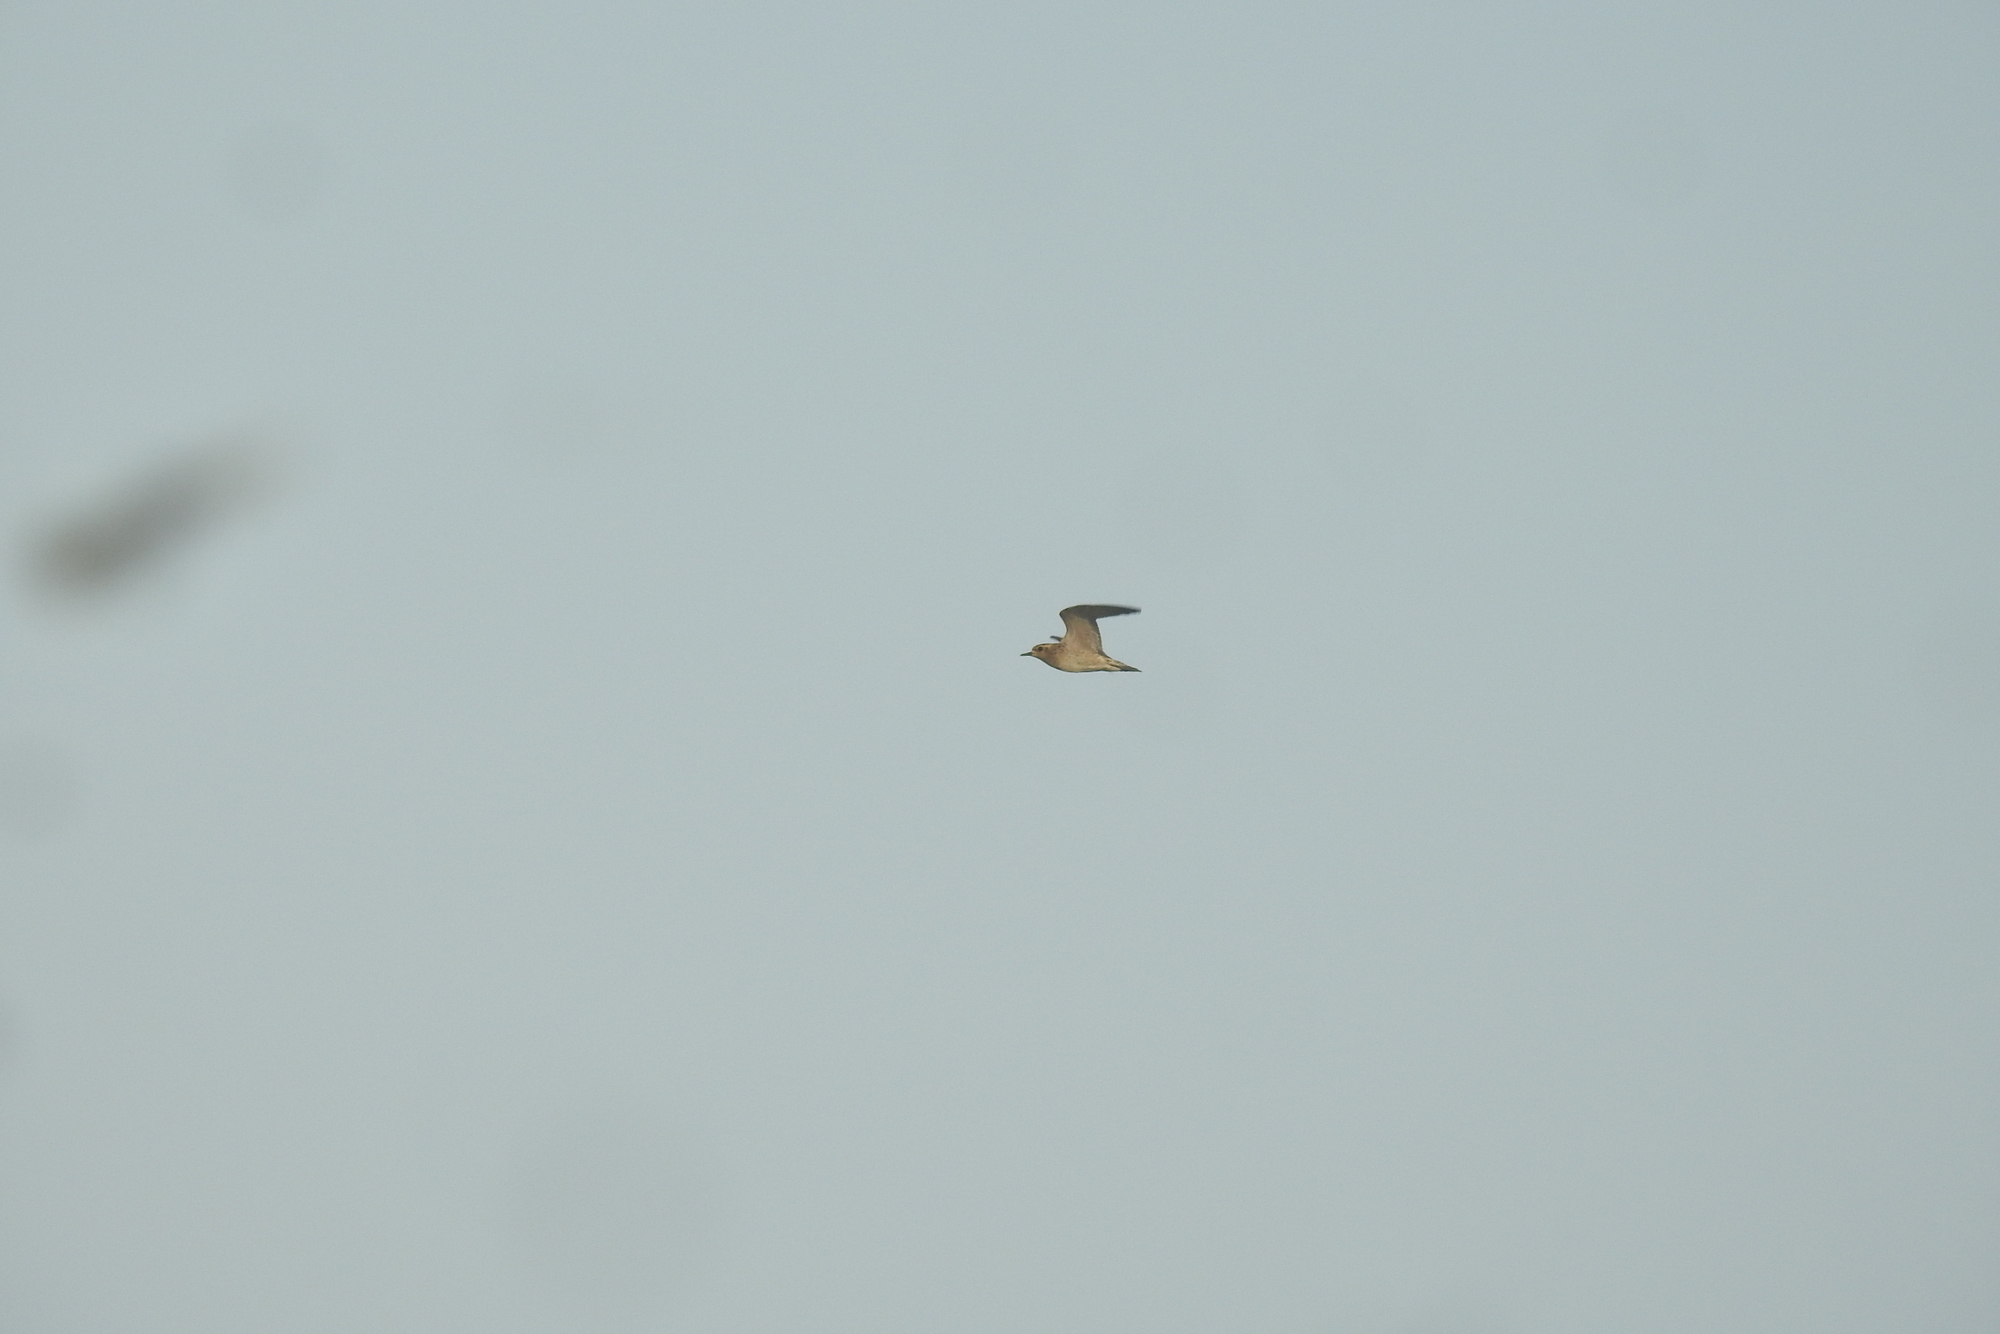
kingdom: Animalia
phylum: Chordata
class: Aves
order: Charadriiformes
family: Charadriidae
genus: Pluvialis
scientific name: Pluvialis fulva
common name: Pacific golden plover
